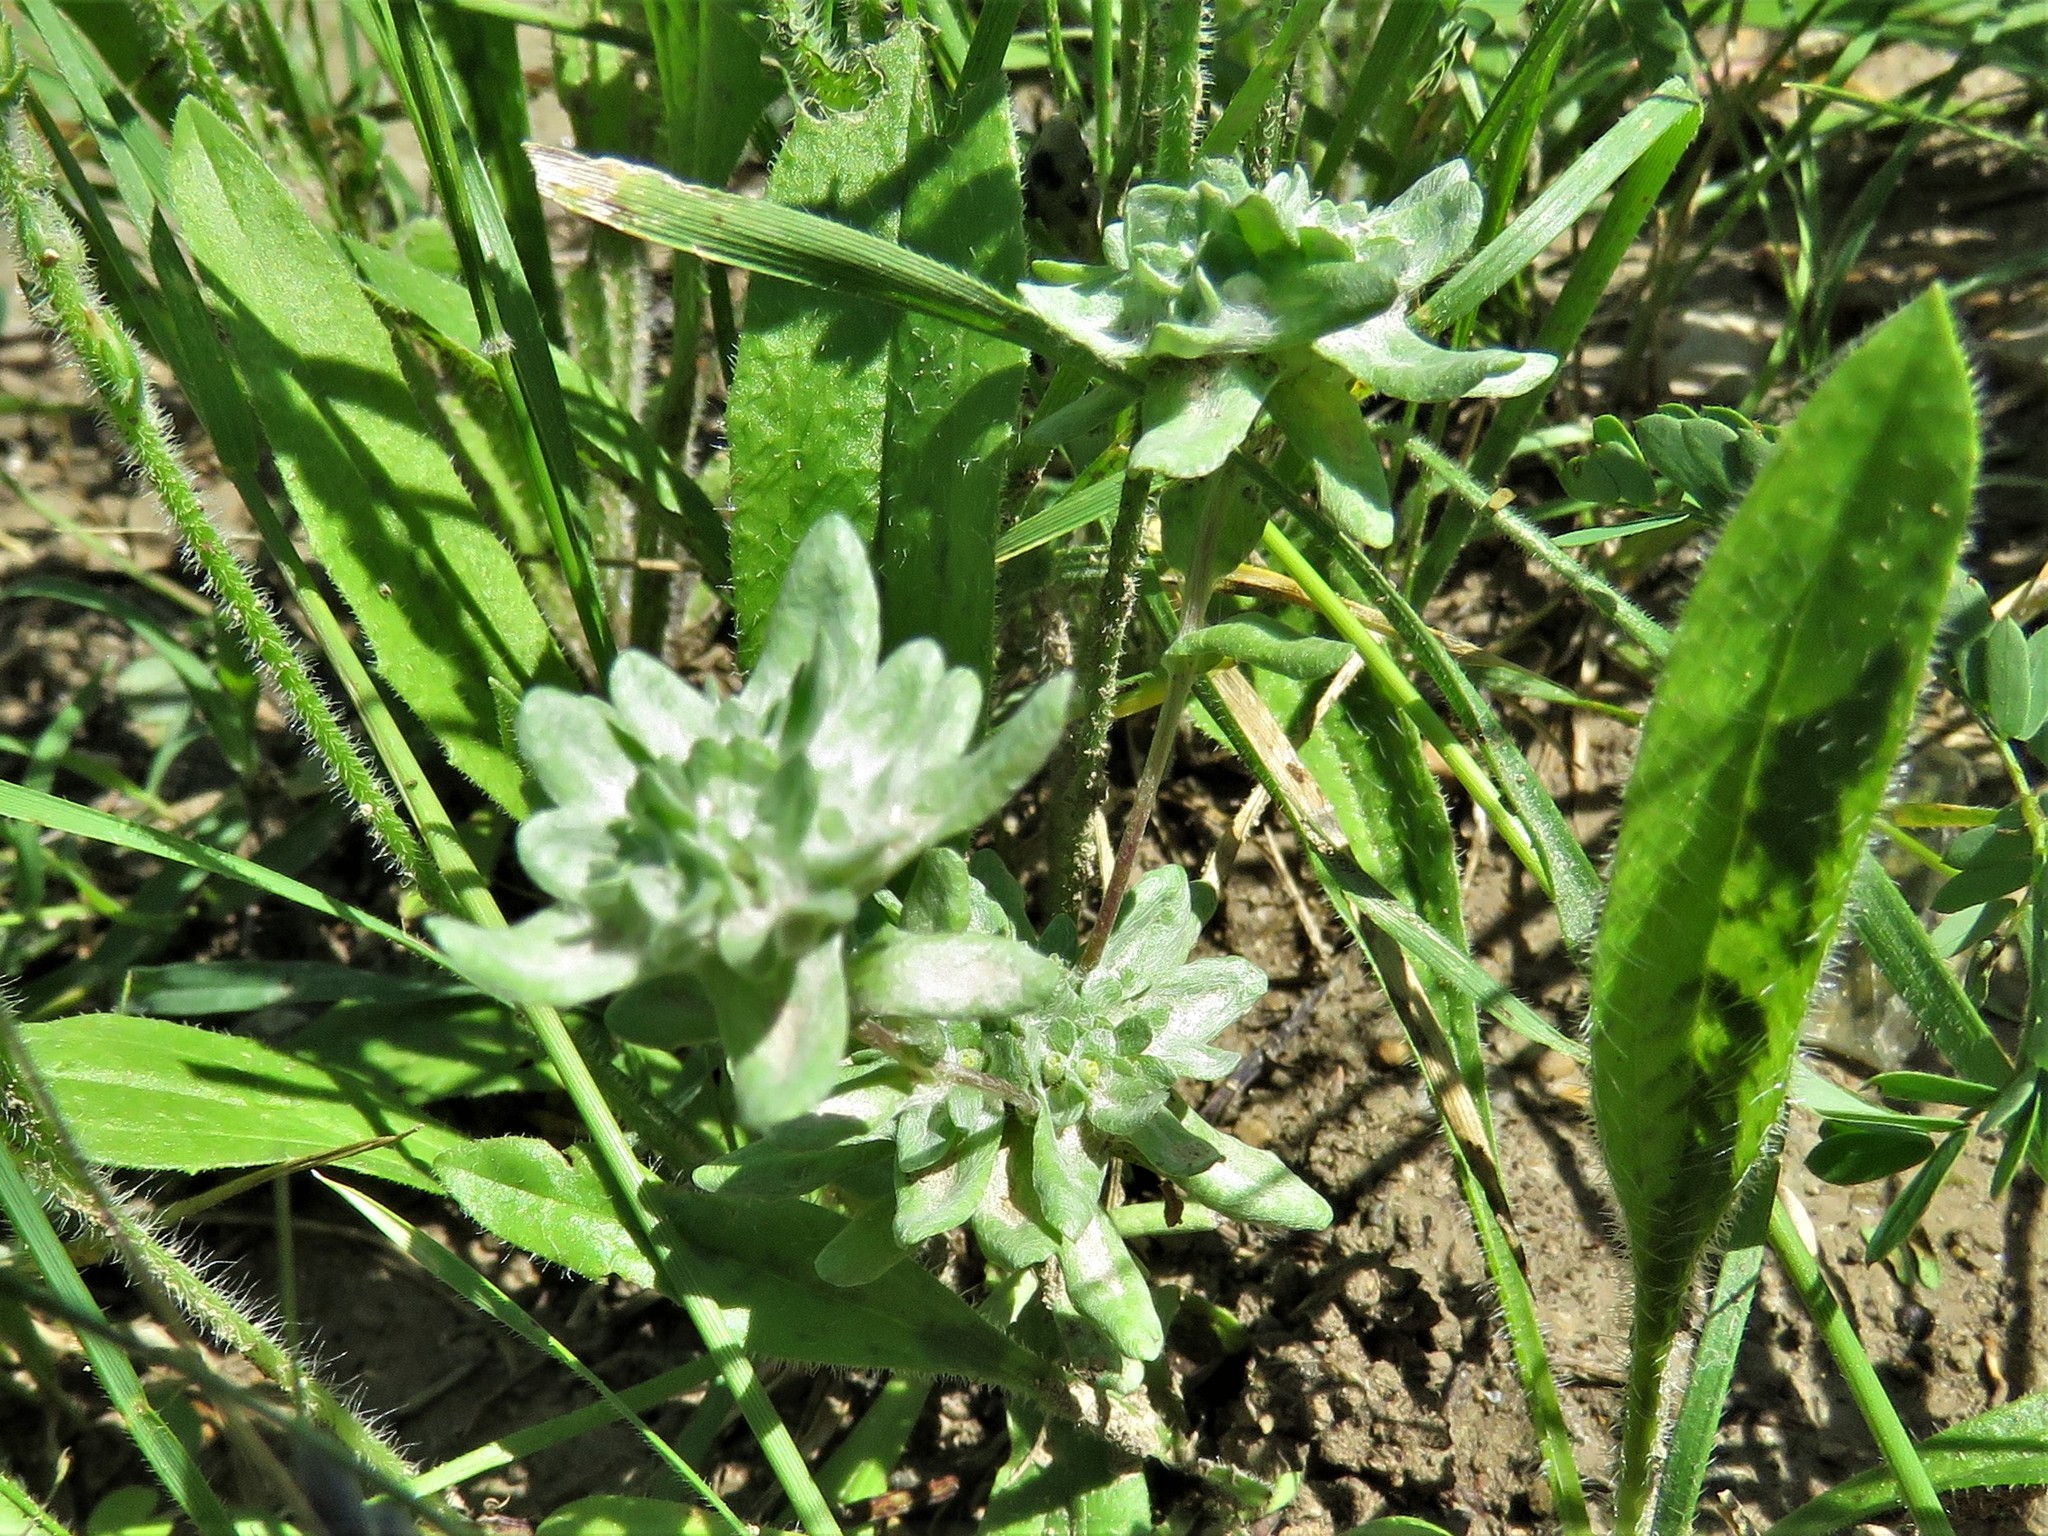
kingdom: Plantae
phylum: Tracheophyta
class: Magnoliopsida
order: Asterales
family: Asteraceae
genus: Diaperia
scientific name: Diaperia prolifera
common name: Big-head rabbit-tobacco
